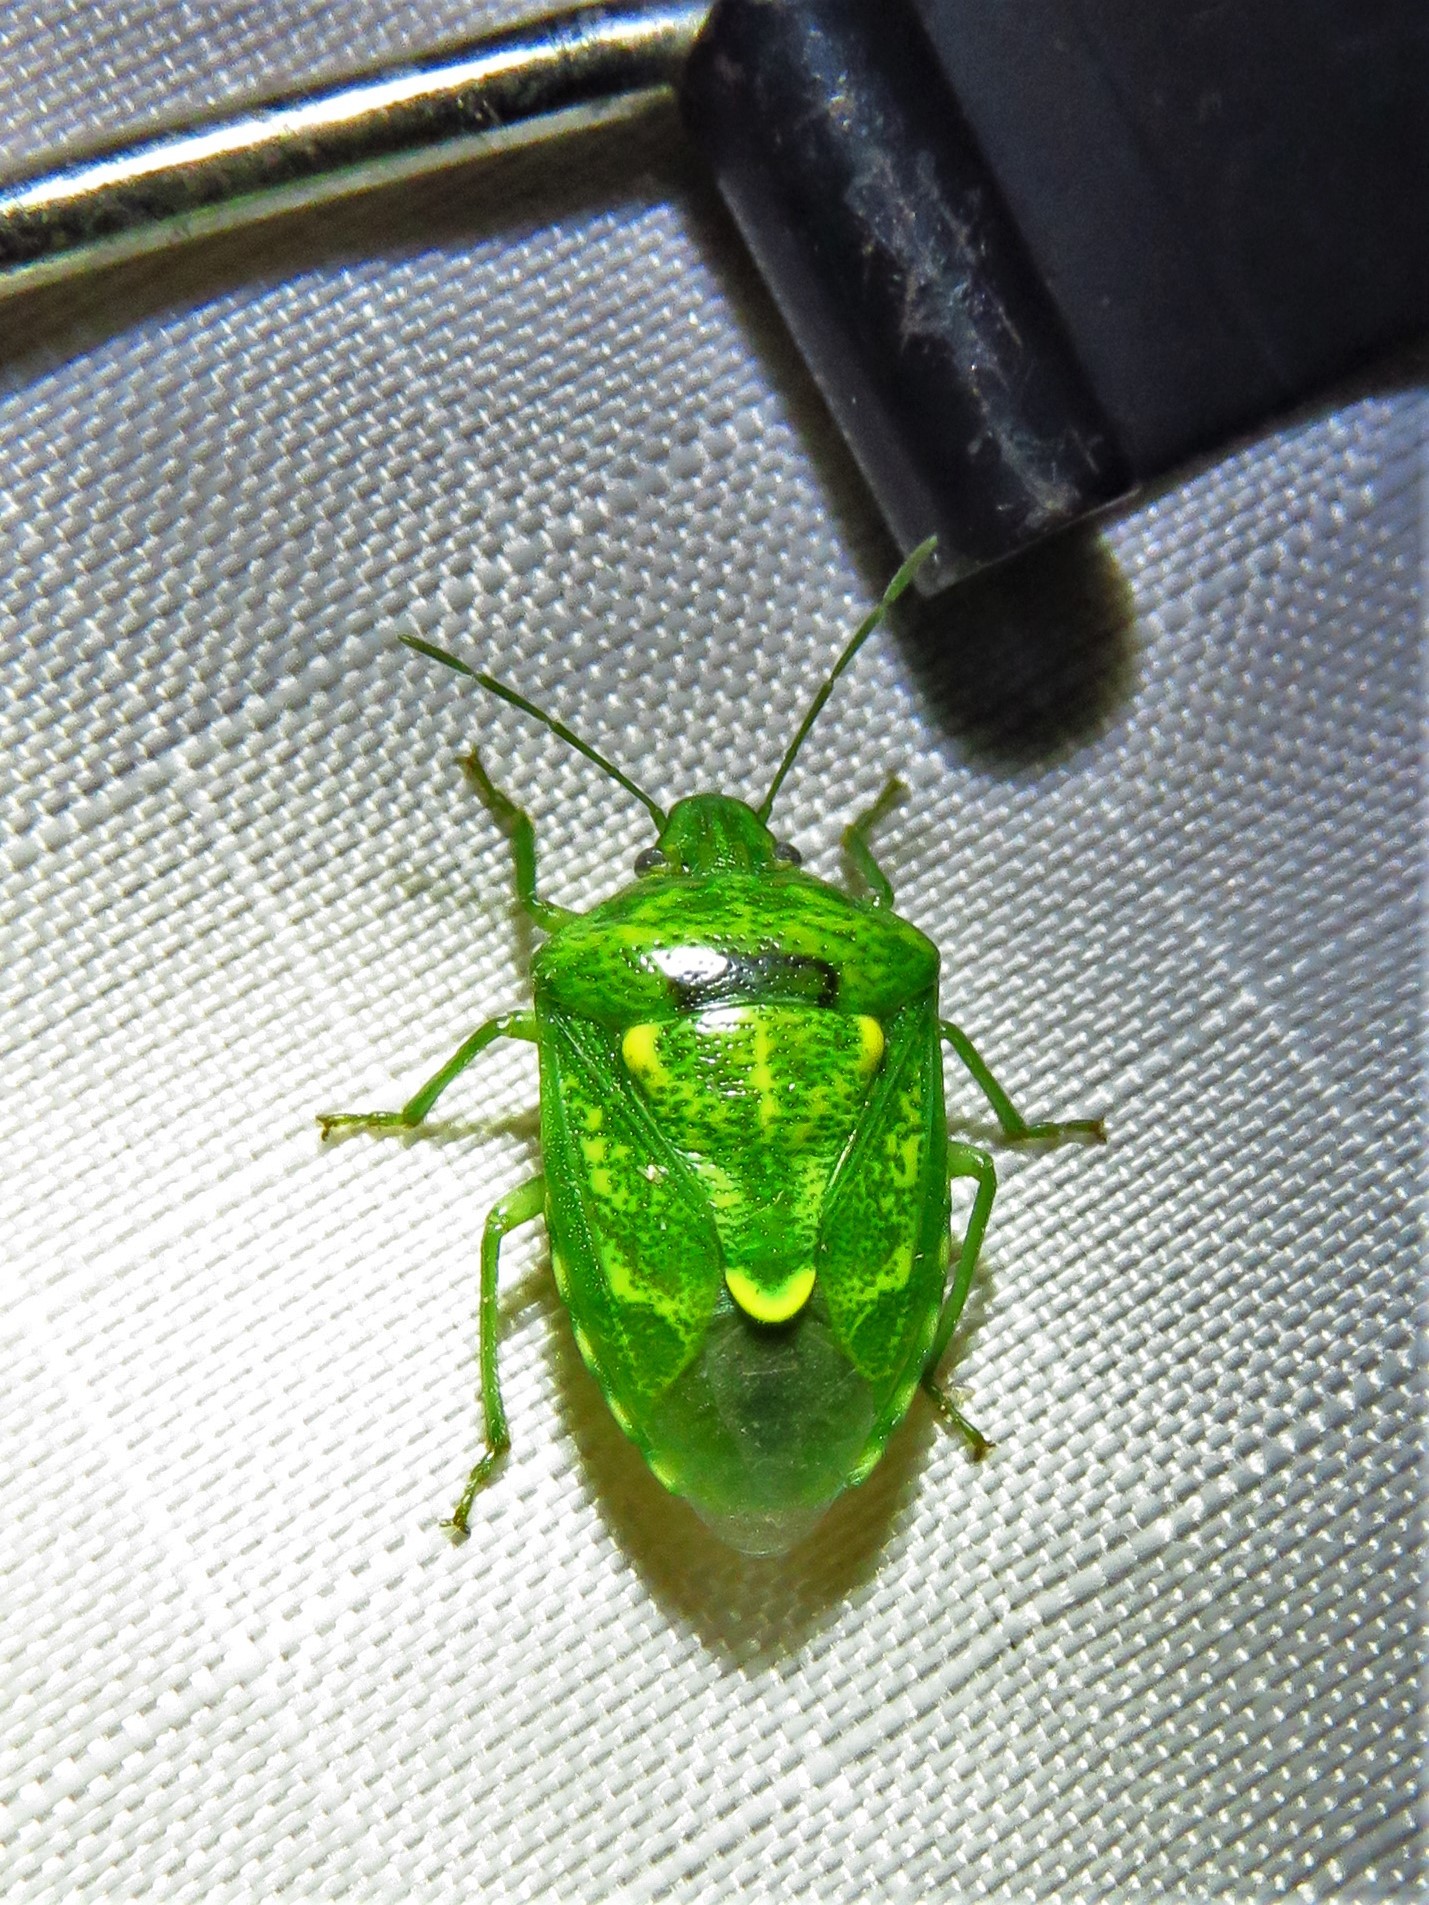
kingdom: Animalia
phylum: Arthropoda
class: Insecta
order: Hemiptera
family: Pentatomidae
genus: Banasa
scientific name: Banasa euchlora
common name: Cedar berry bug
